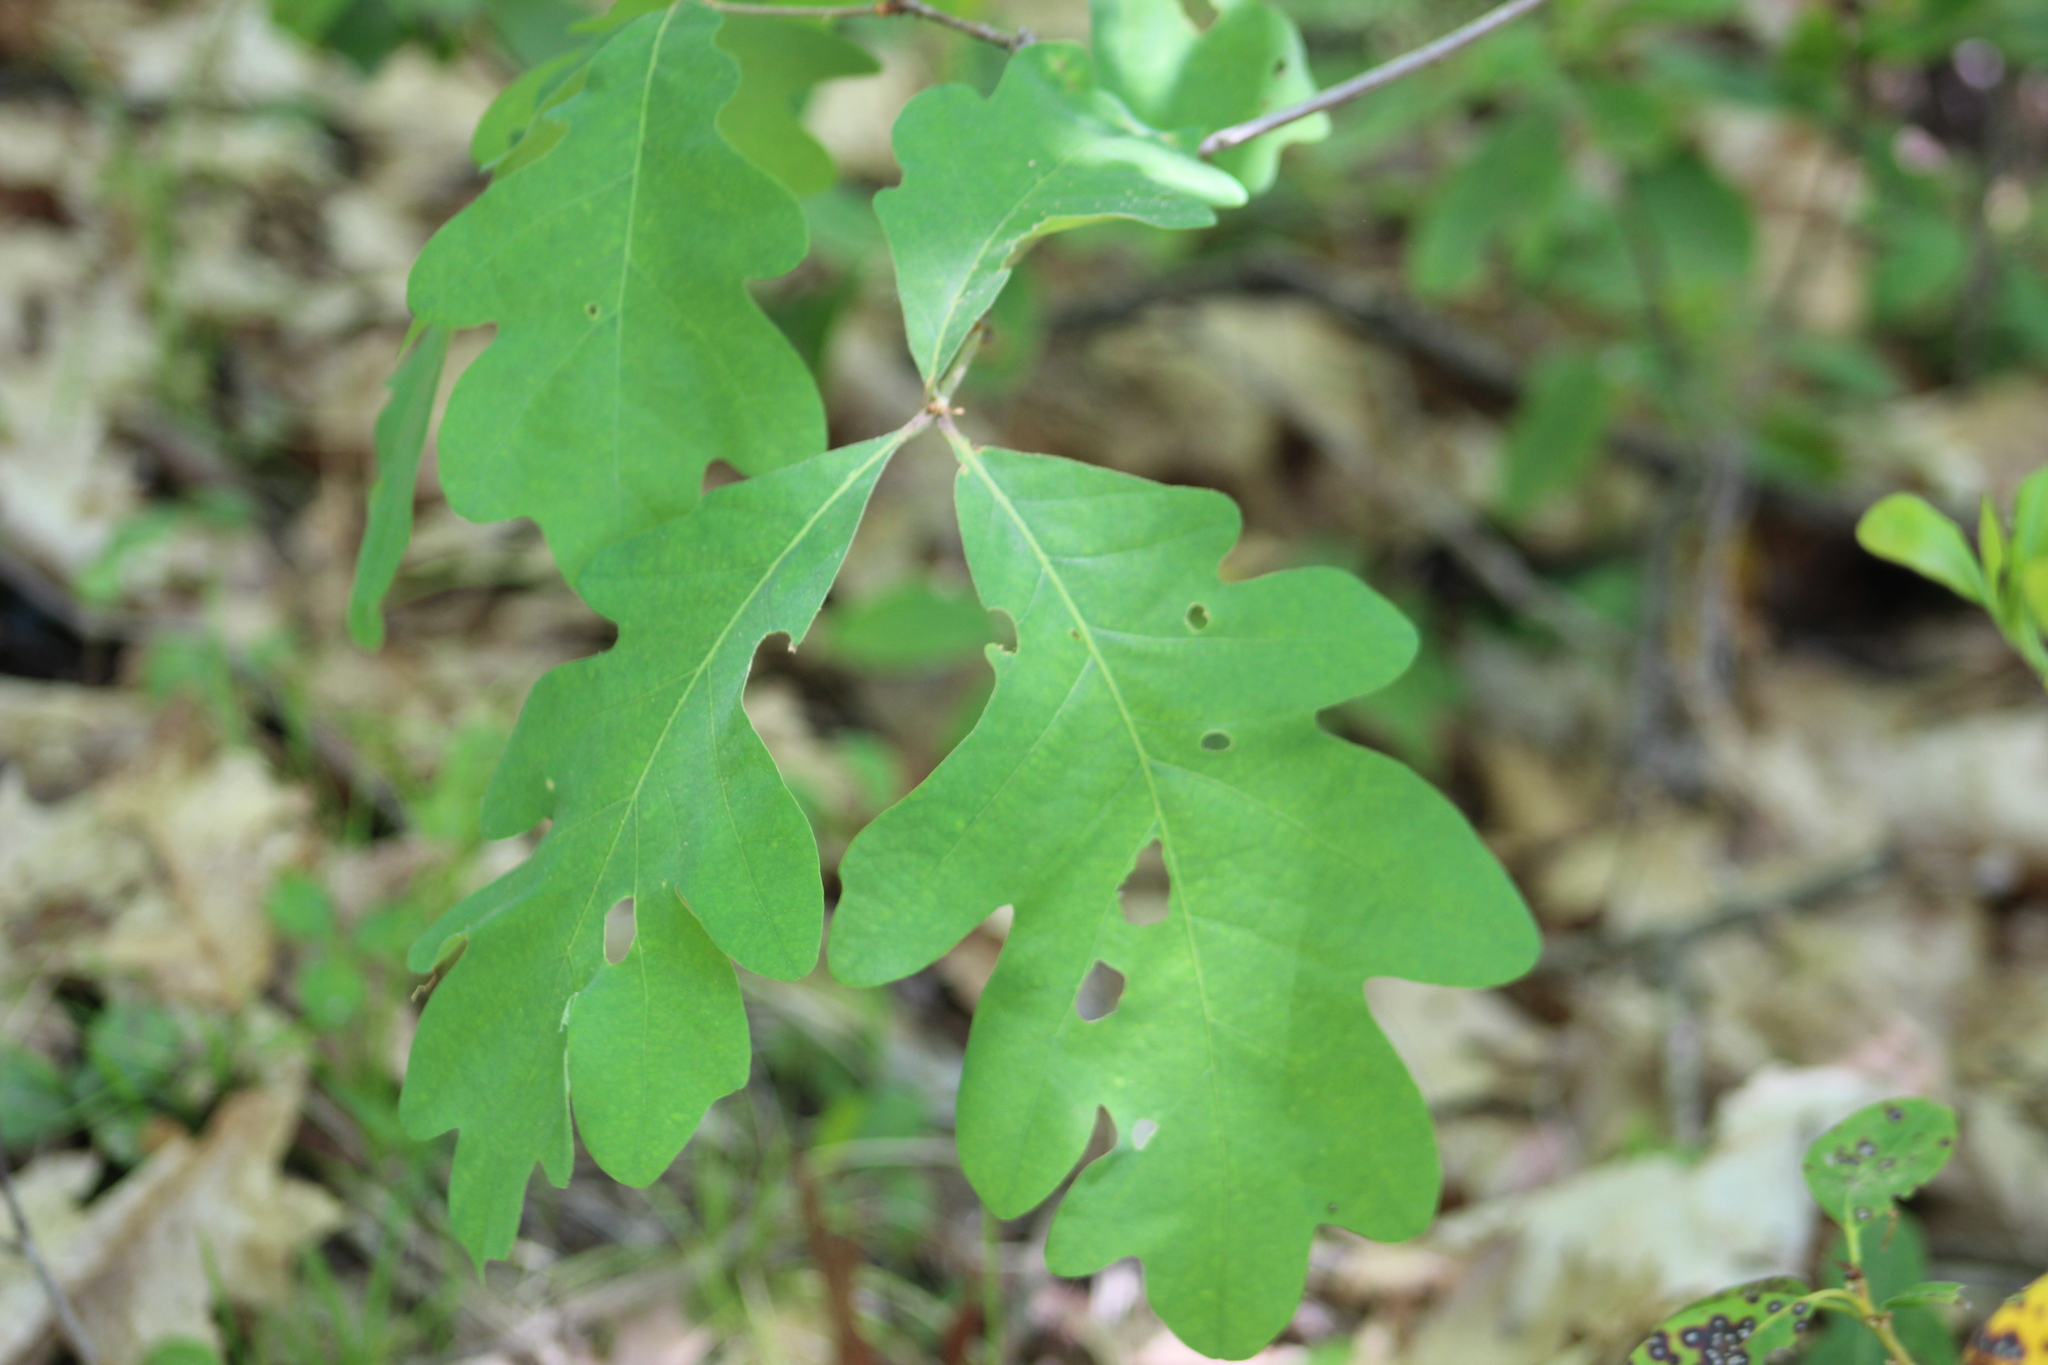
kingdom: Plantae
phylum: Tracheophyta
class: Magnoliopsida
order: Fagales
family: Fagaceae
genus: Quercus
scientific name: Quercus alba
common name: White oak
